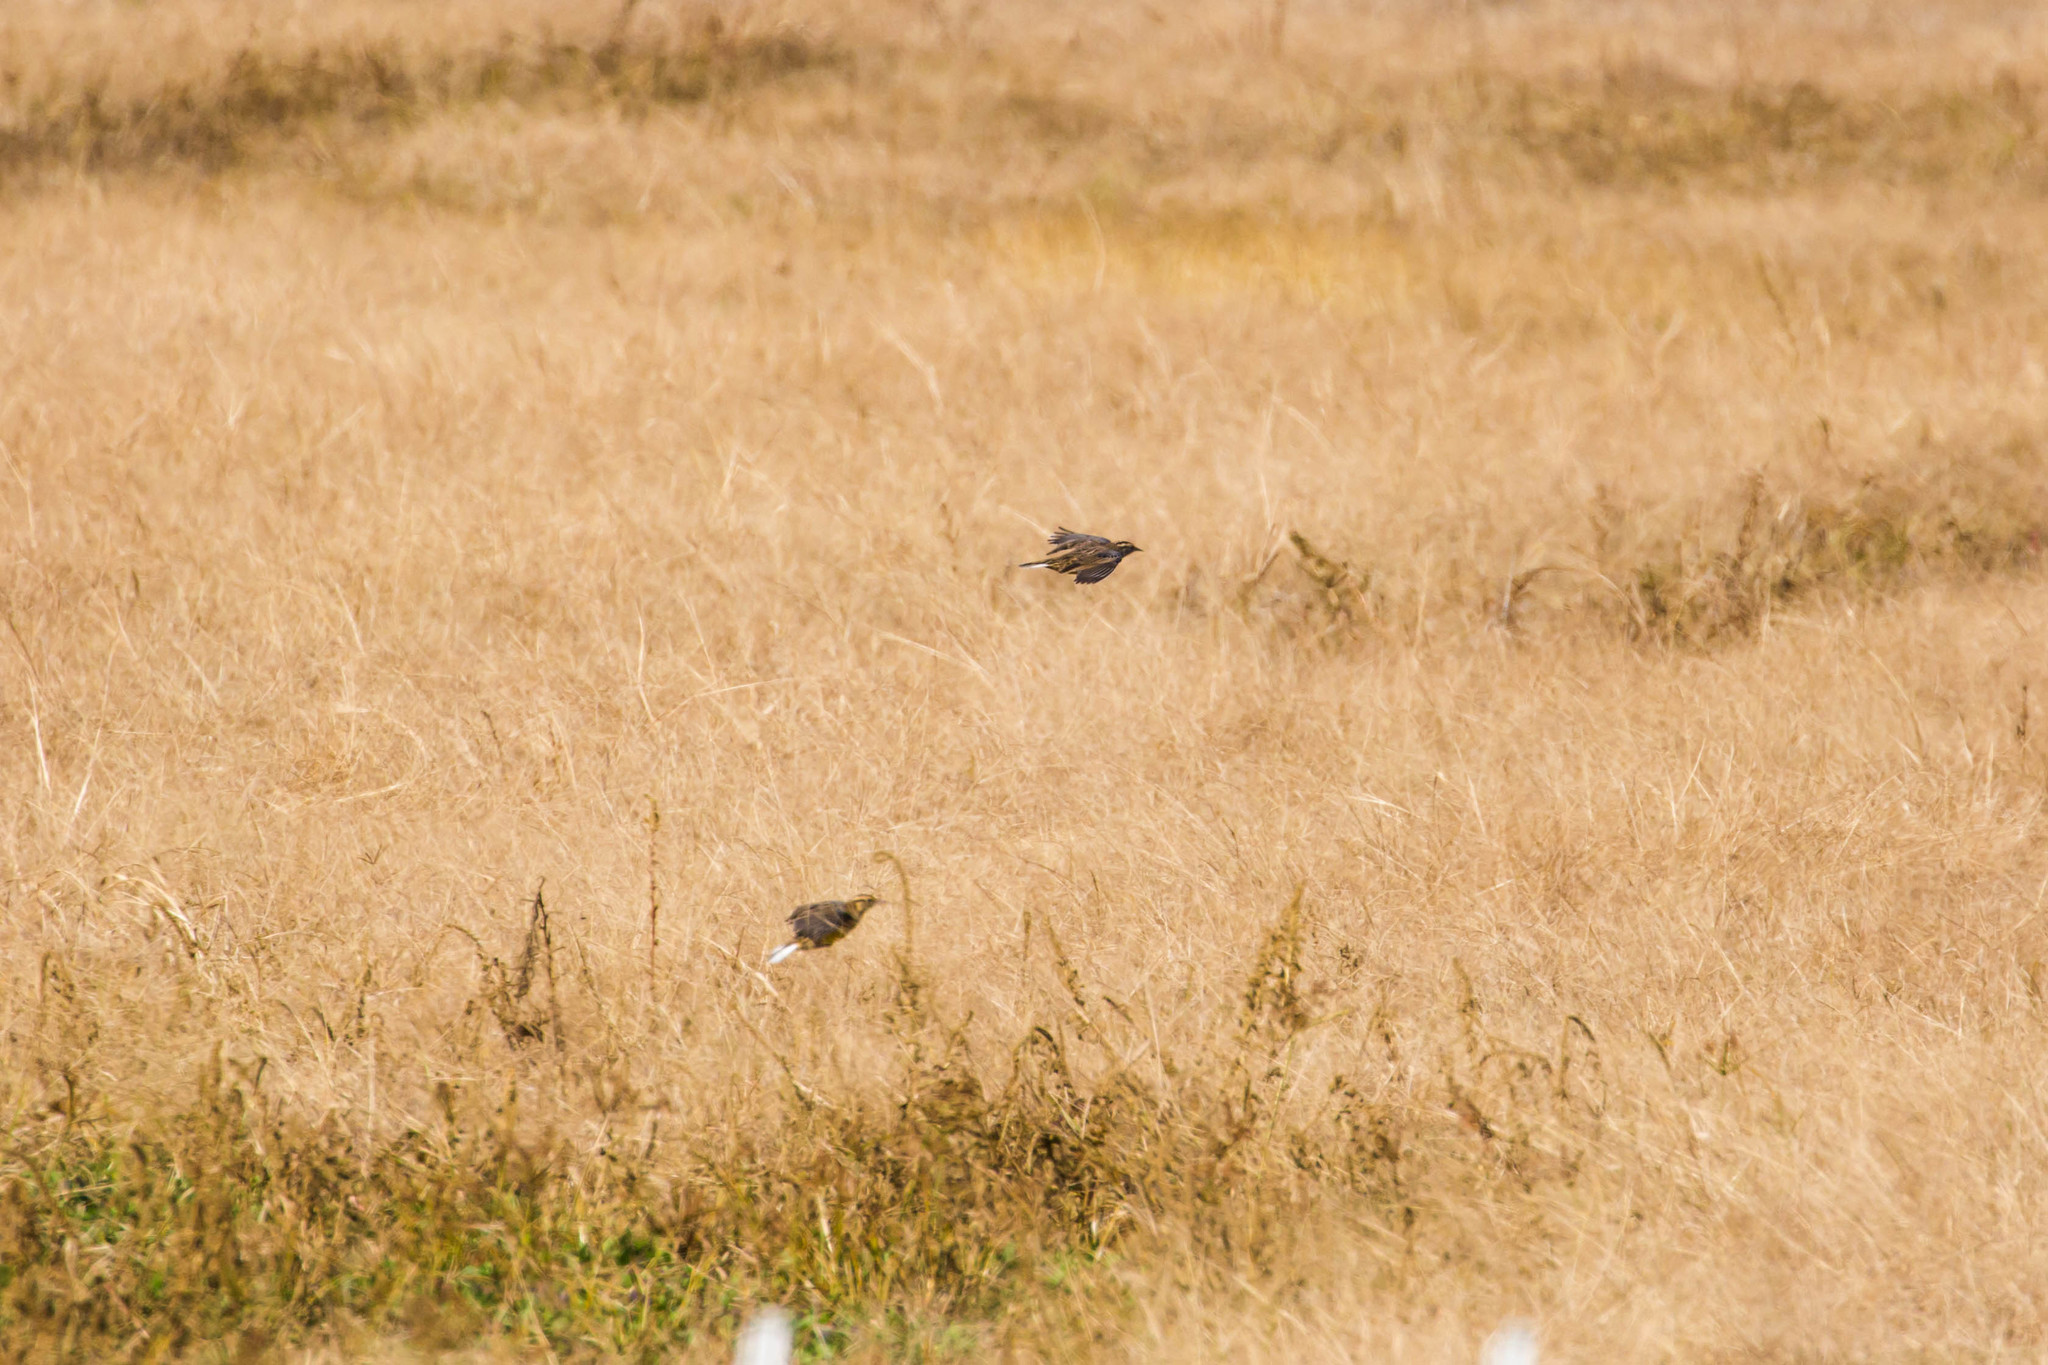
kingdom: Animalia
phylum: Chordata
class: Aves
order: Passeriformes
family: Icteridae
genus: Sturnella
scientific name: Sturnella magna
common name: Eastern meadowlark
